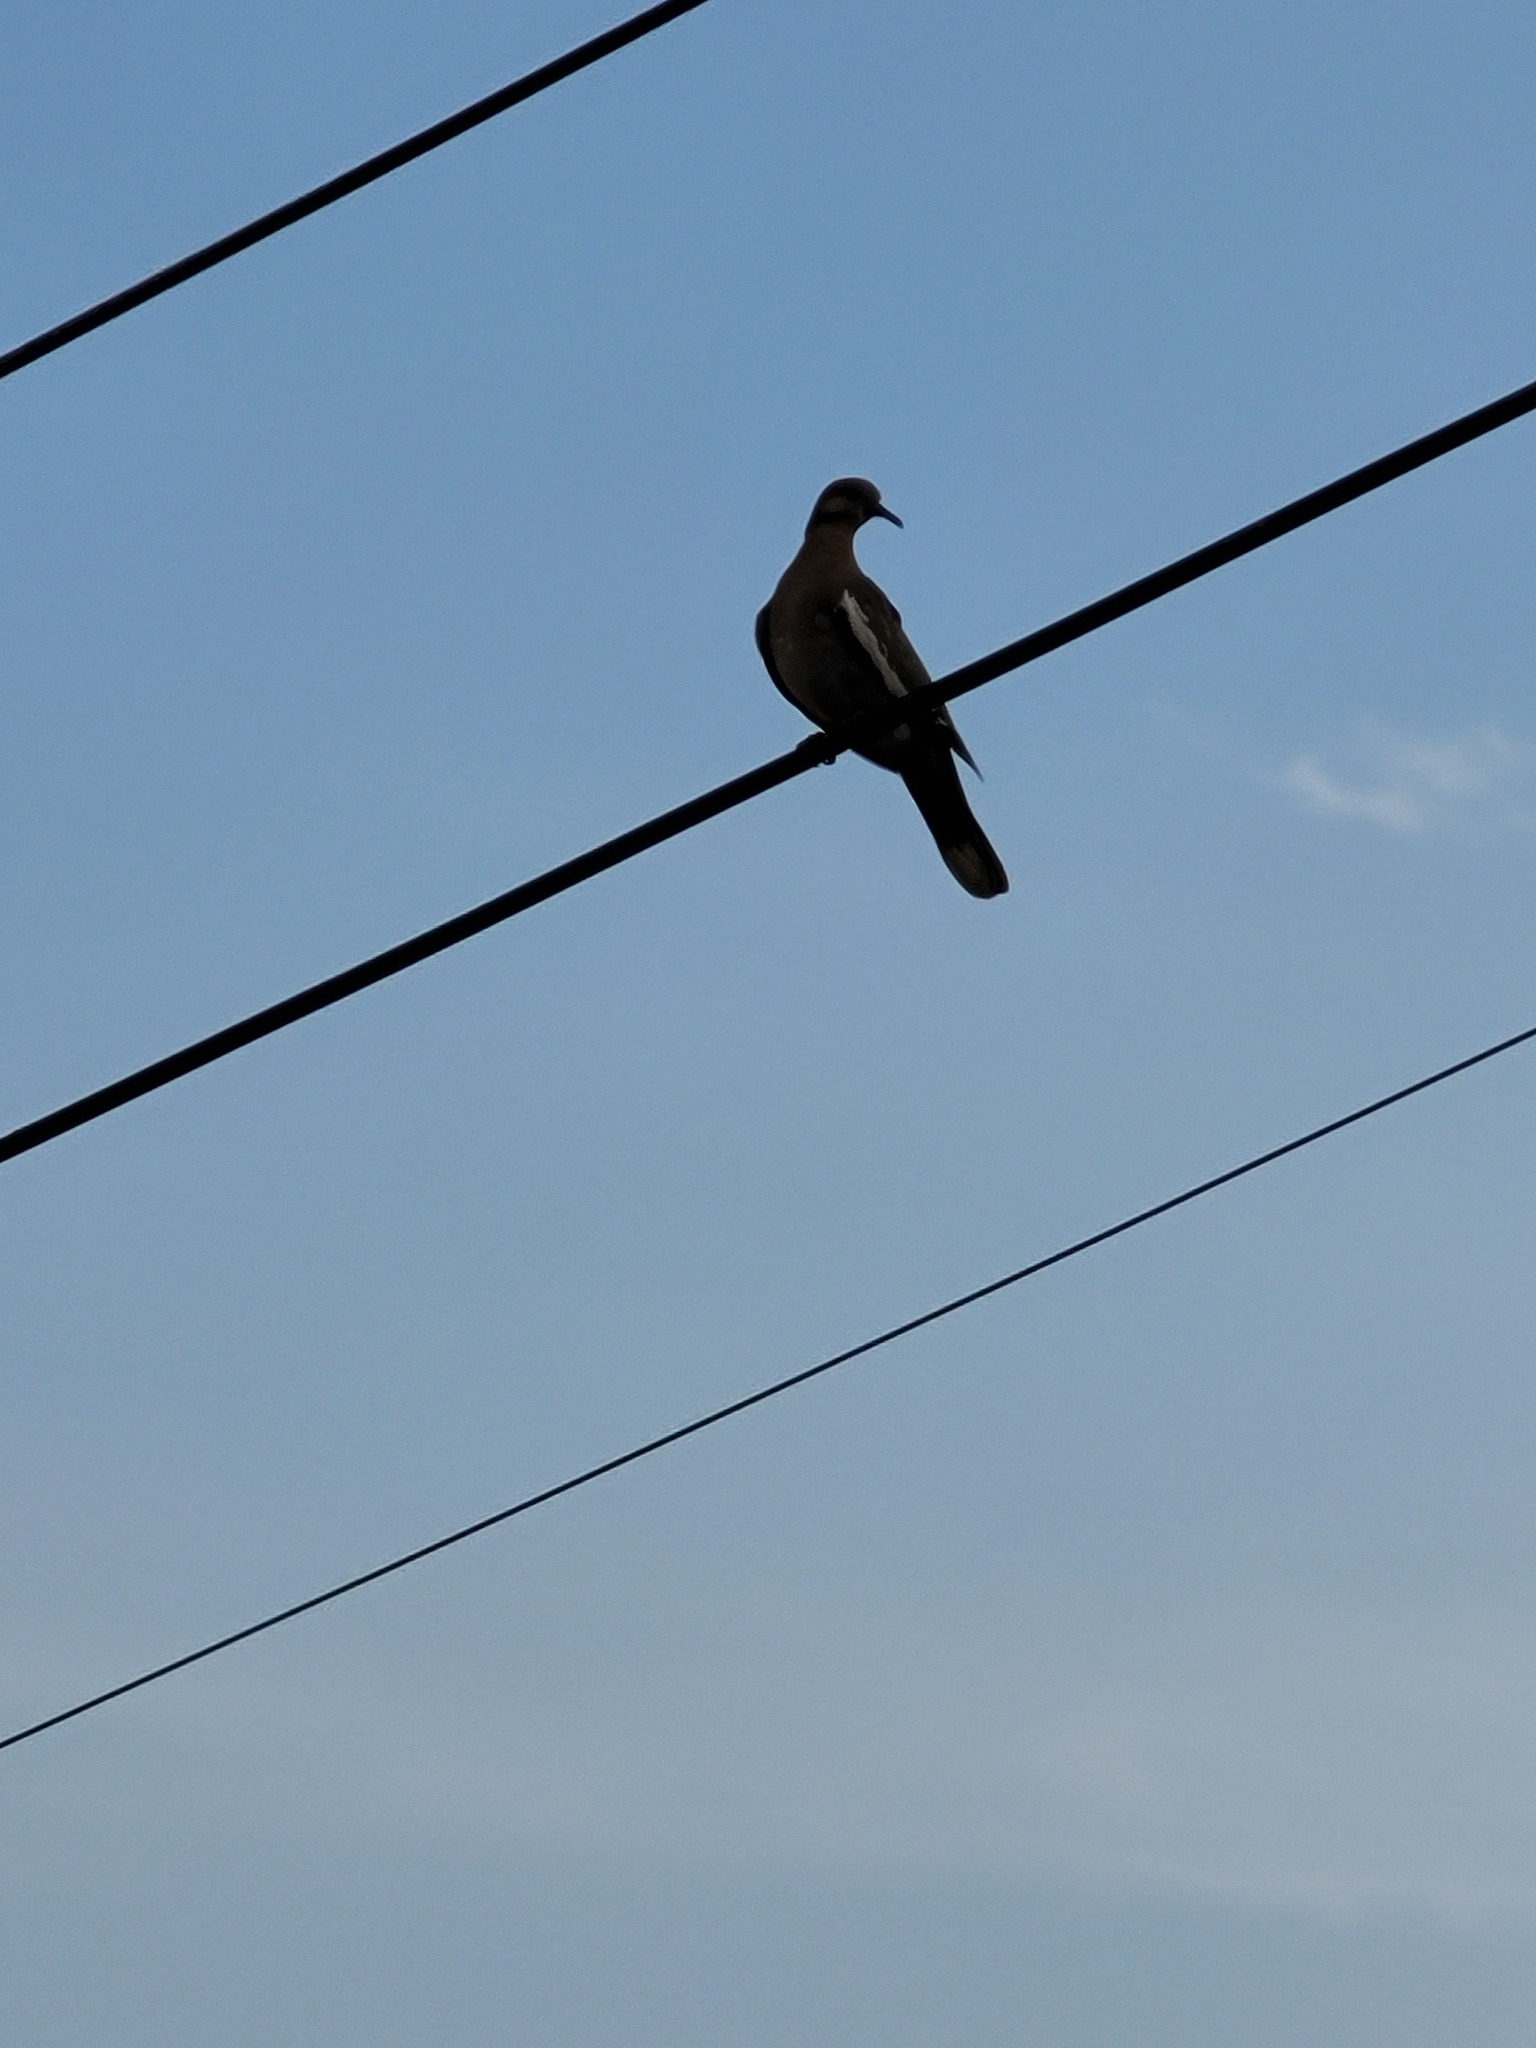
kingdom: Animalia
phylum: Chordata
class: Aves
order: Columbiformes
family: Columbidae
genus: Zenaida
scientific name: Zenaida asiatica
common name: White-winged dove
